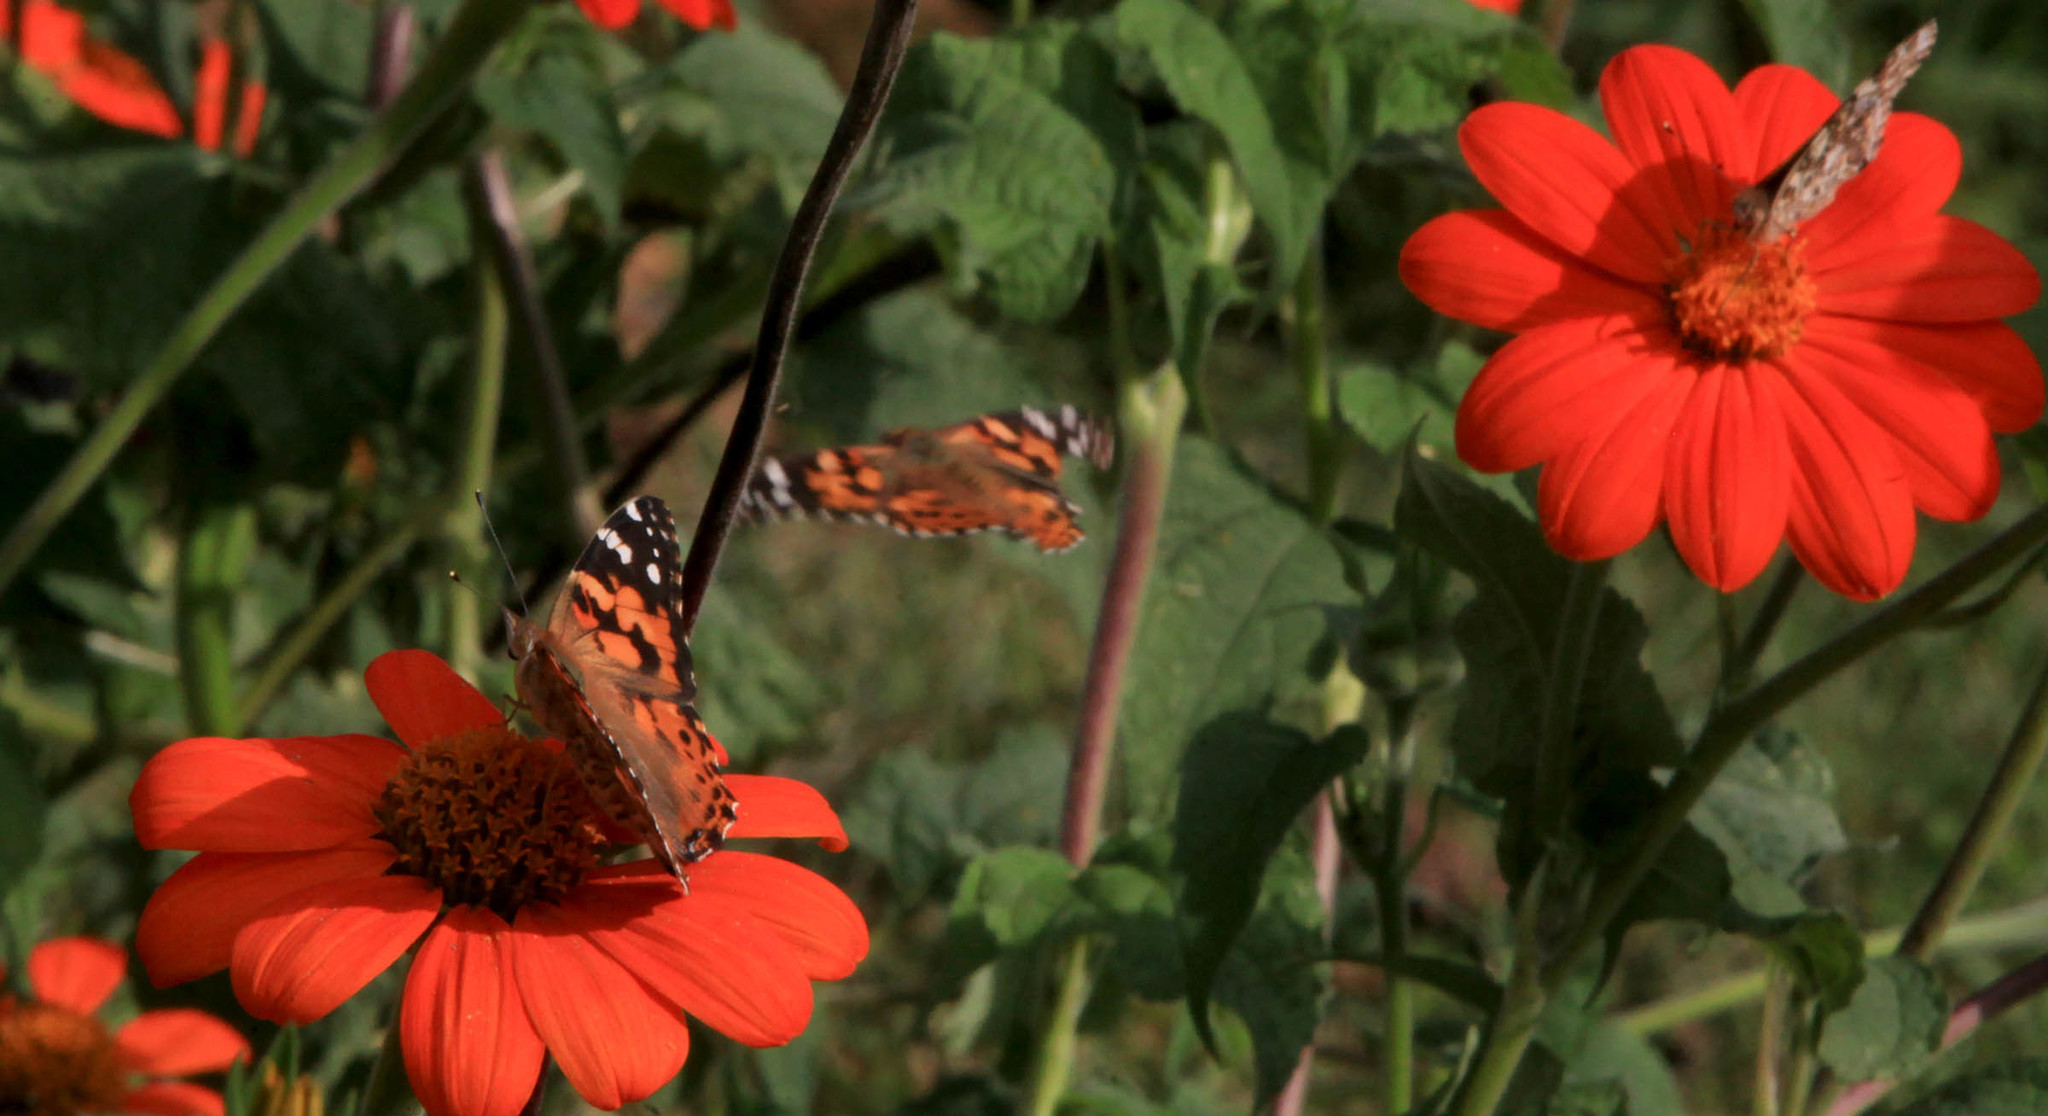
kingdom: Animalia
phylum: Arthropoda
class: Insecta
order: Lepidoptera
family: Nymphalidae
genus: Vanessa
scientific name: Vanessa cardui
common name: Painted lady
